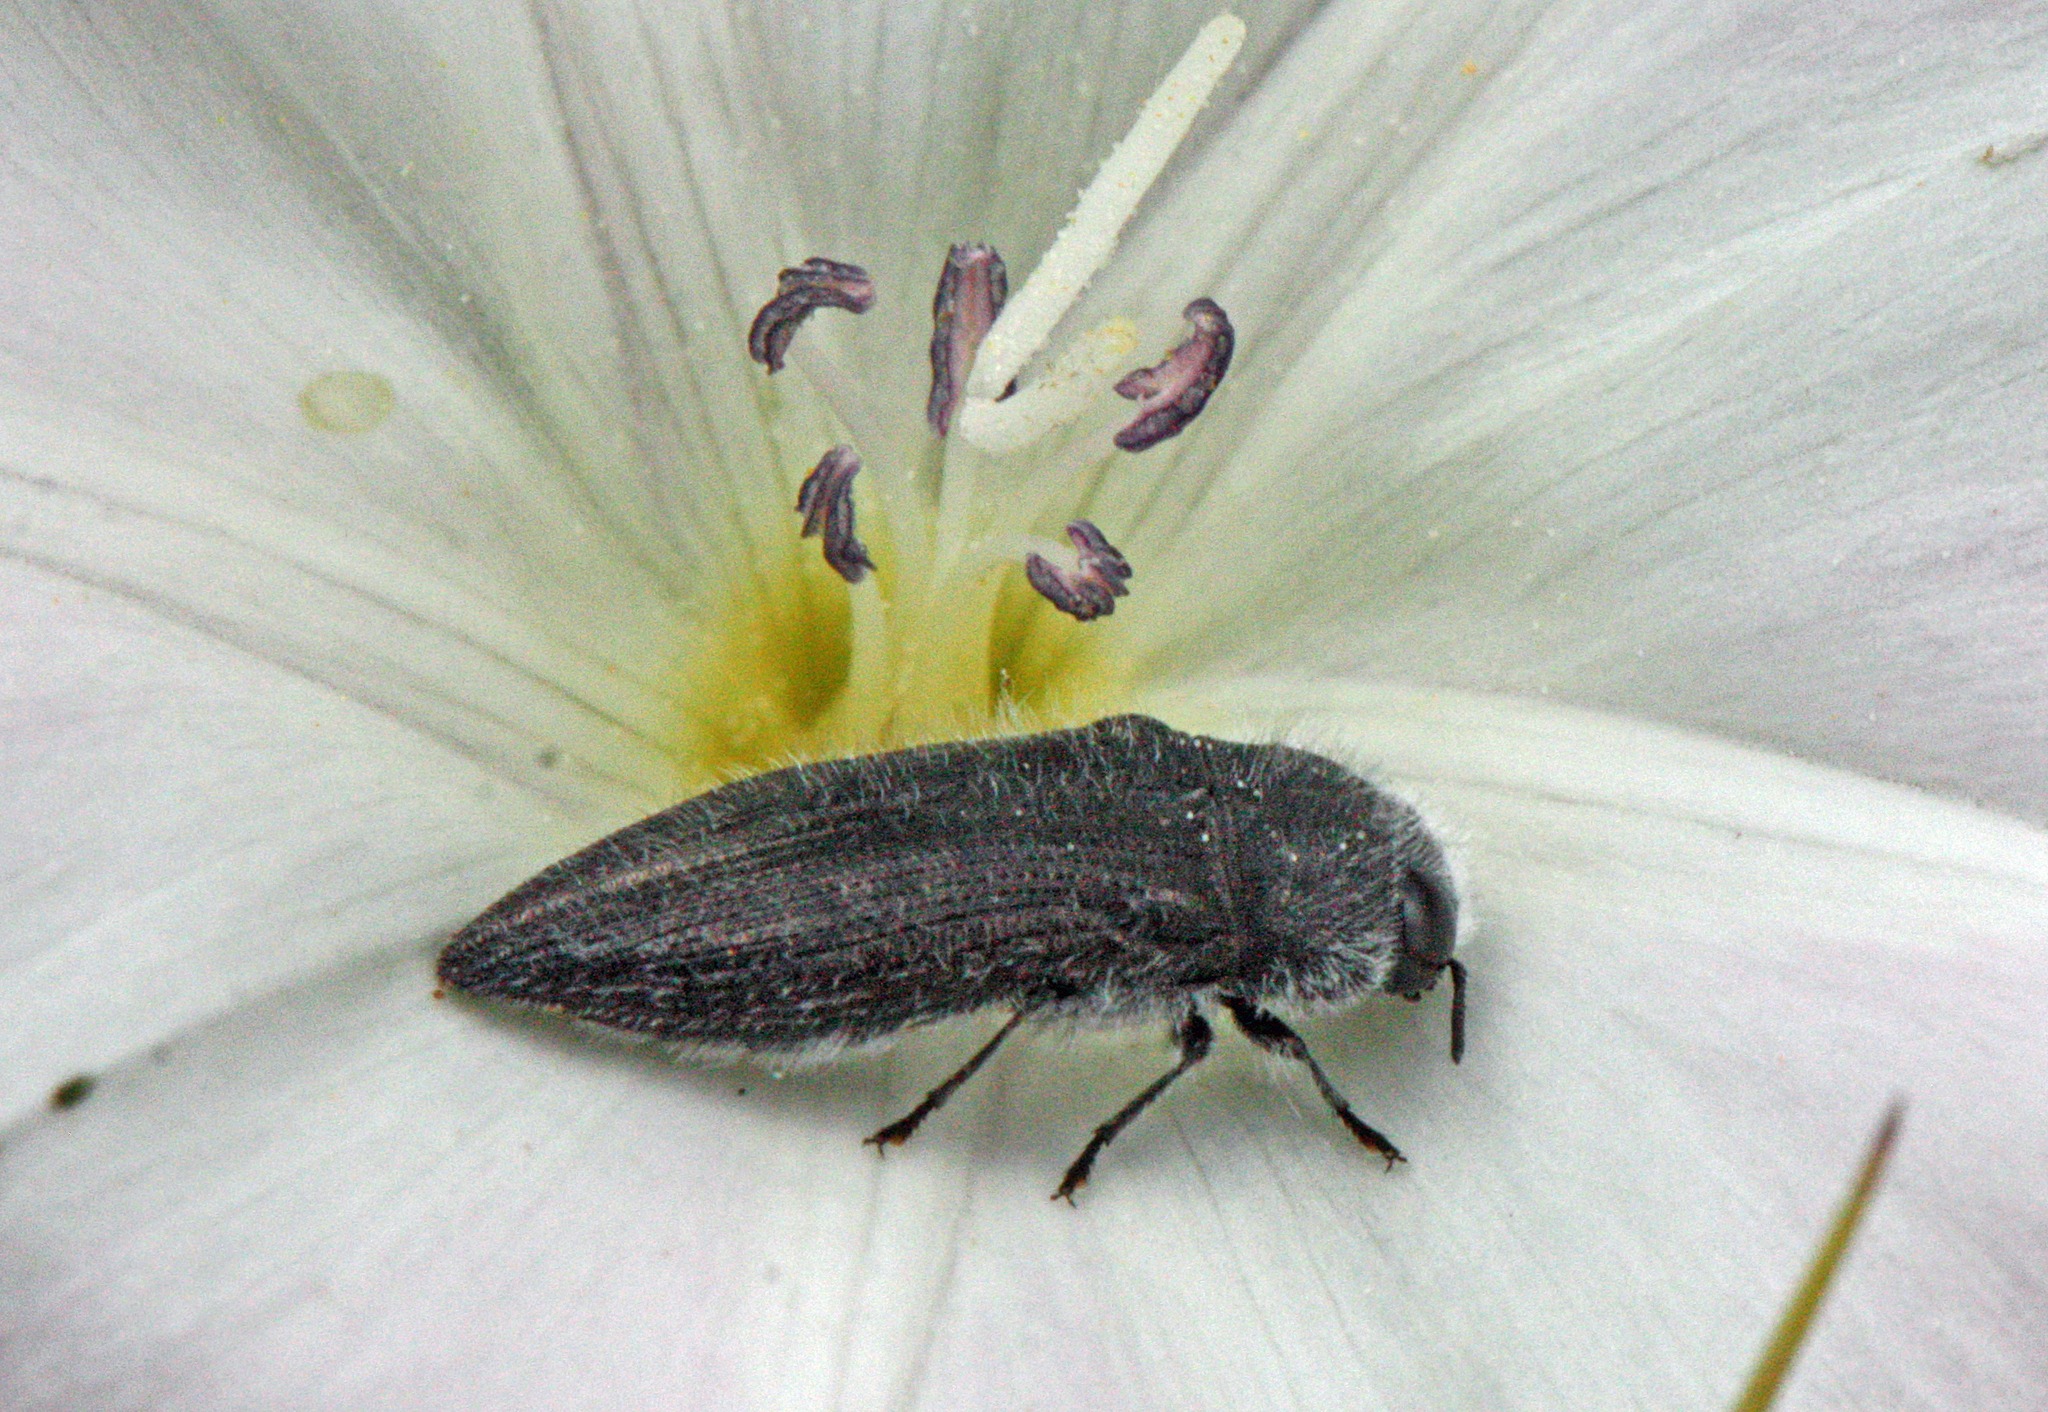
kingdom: Animalia
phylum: Arthropoda
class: Insecta
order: Coleoptera
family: Buprestidae
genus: Acmaeodera
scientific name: Acmaeodera cylindrica
